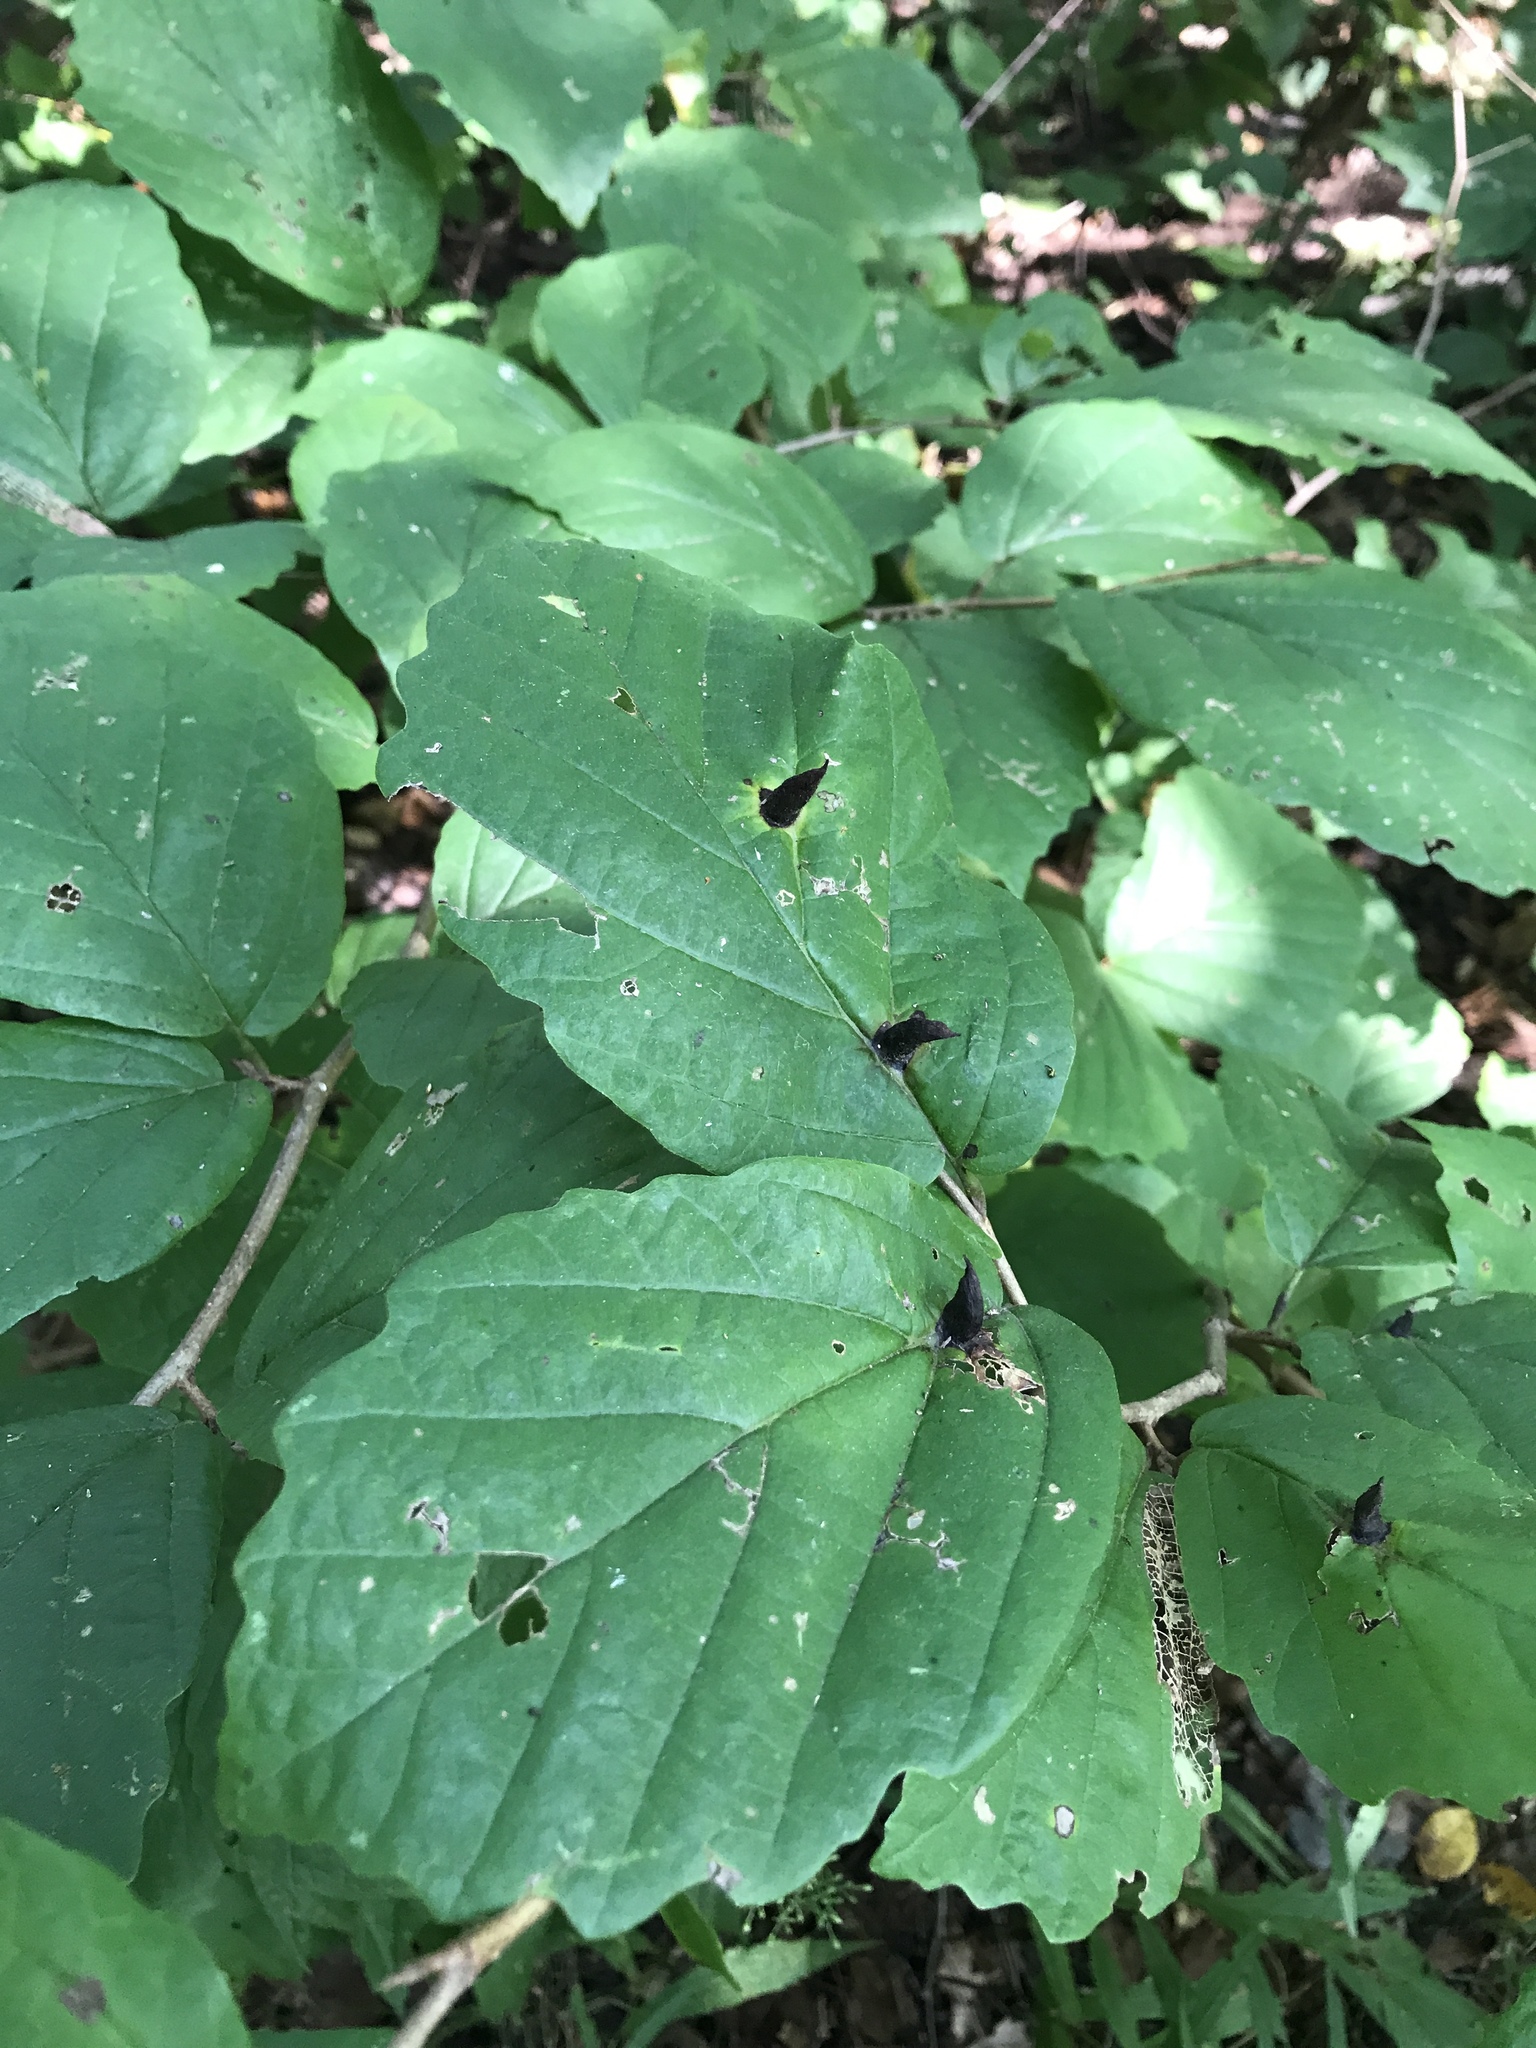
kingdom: Plantae
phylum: Tracheophyta
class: Magnoliopsida
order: Saxifragales
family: Hamamelidaceae
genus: Hamamelis
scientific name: Hamamelis virginiana
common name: Witch-hazel
